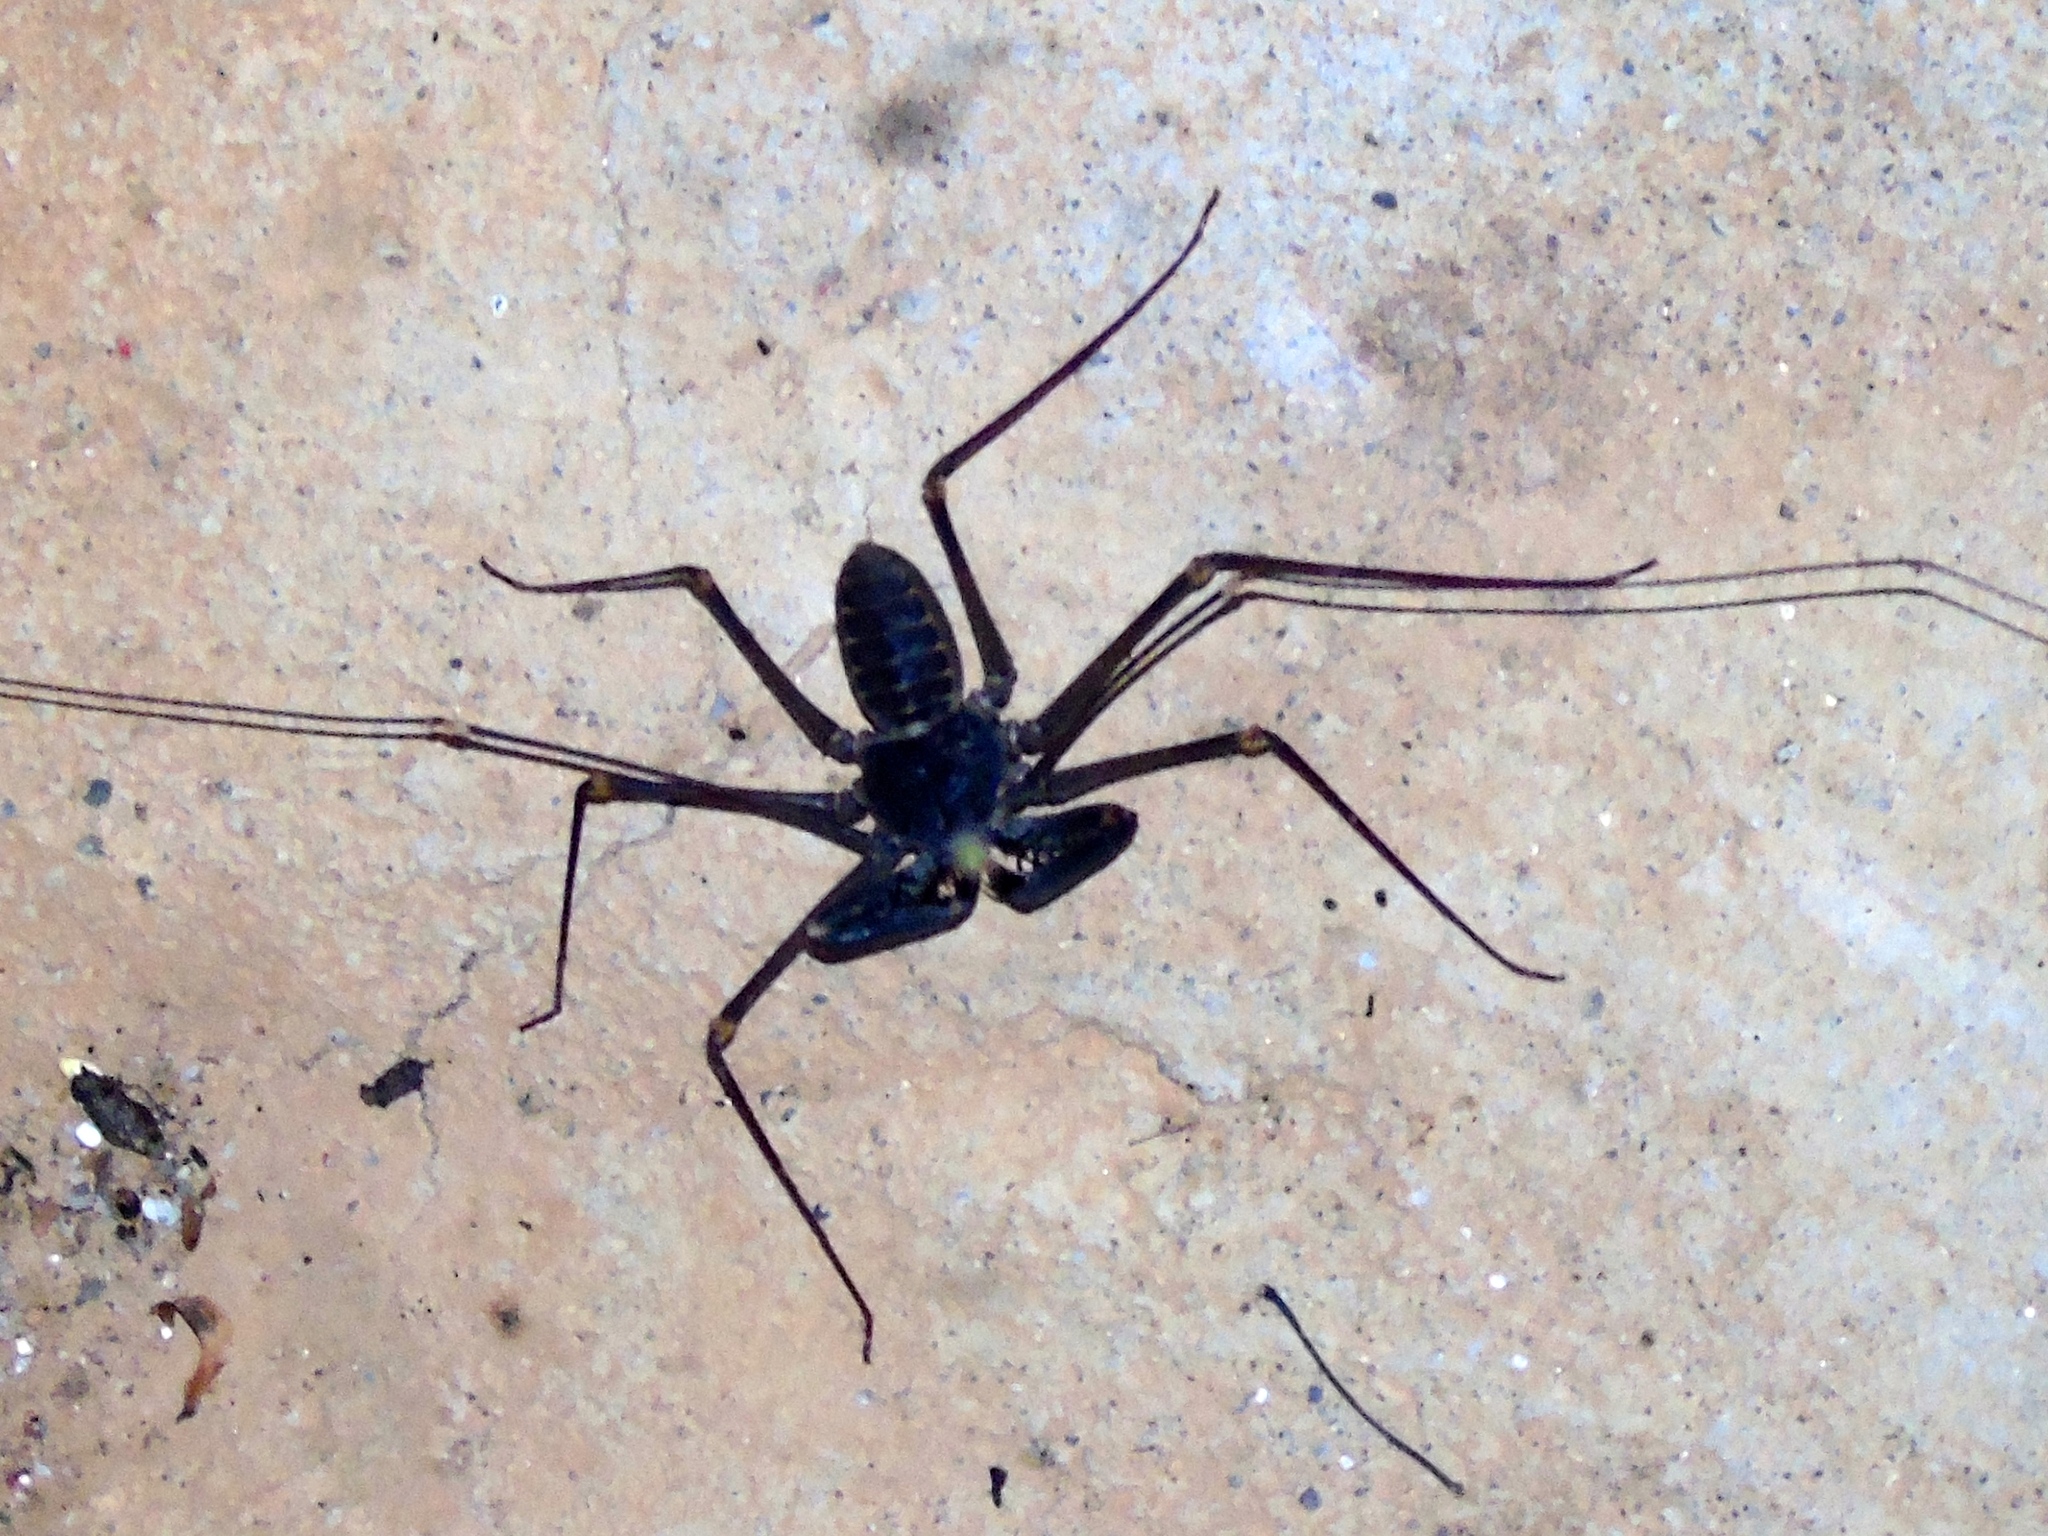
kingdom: Animalia
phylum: Arthropoda
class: Arachnida
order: Amblypygi
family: Phrynidae
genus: Acanthophrynus
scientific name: Acanthophrynus coronatus
